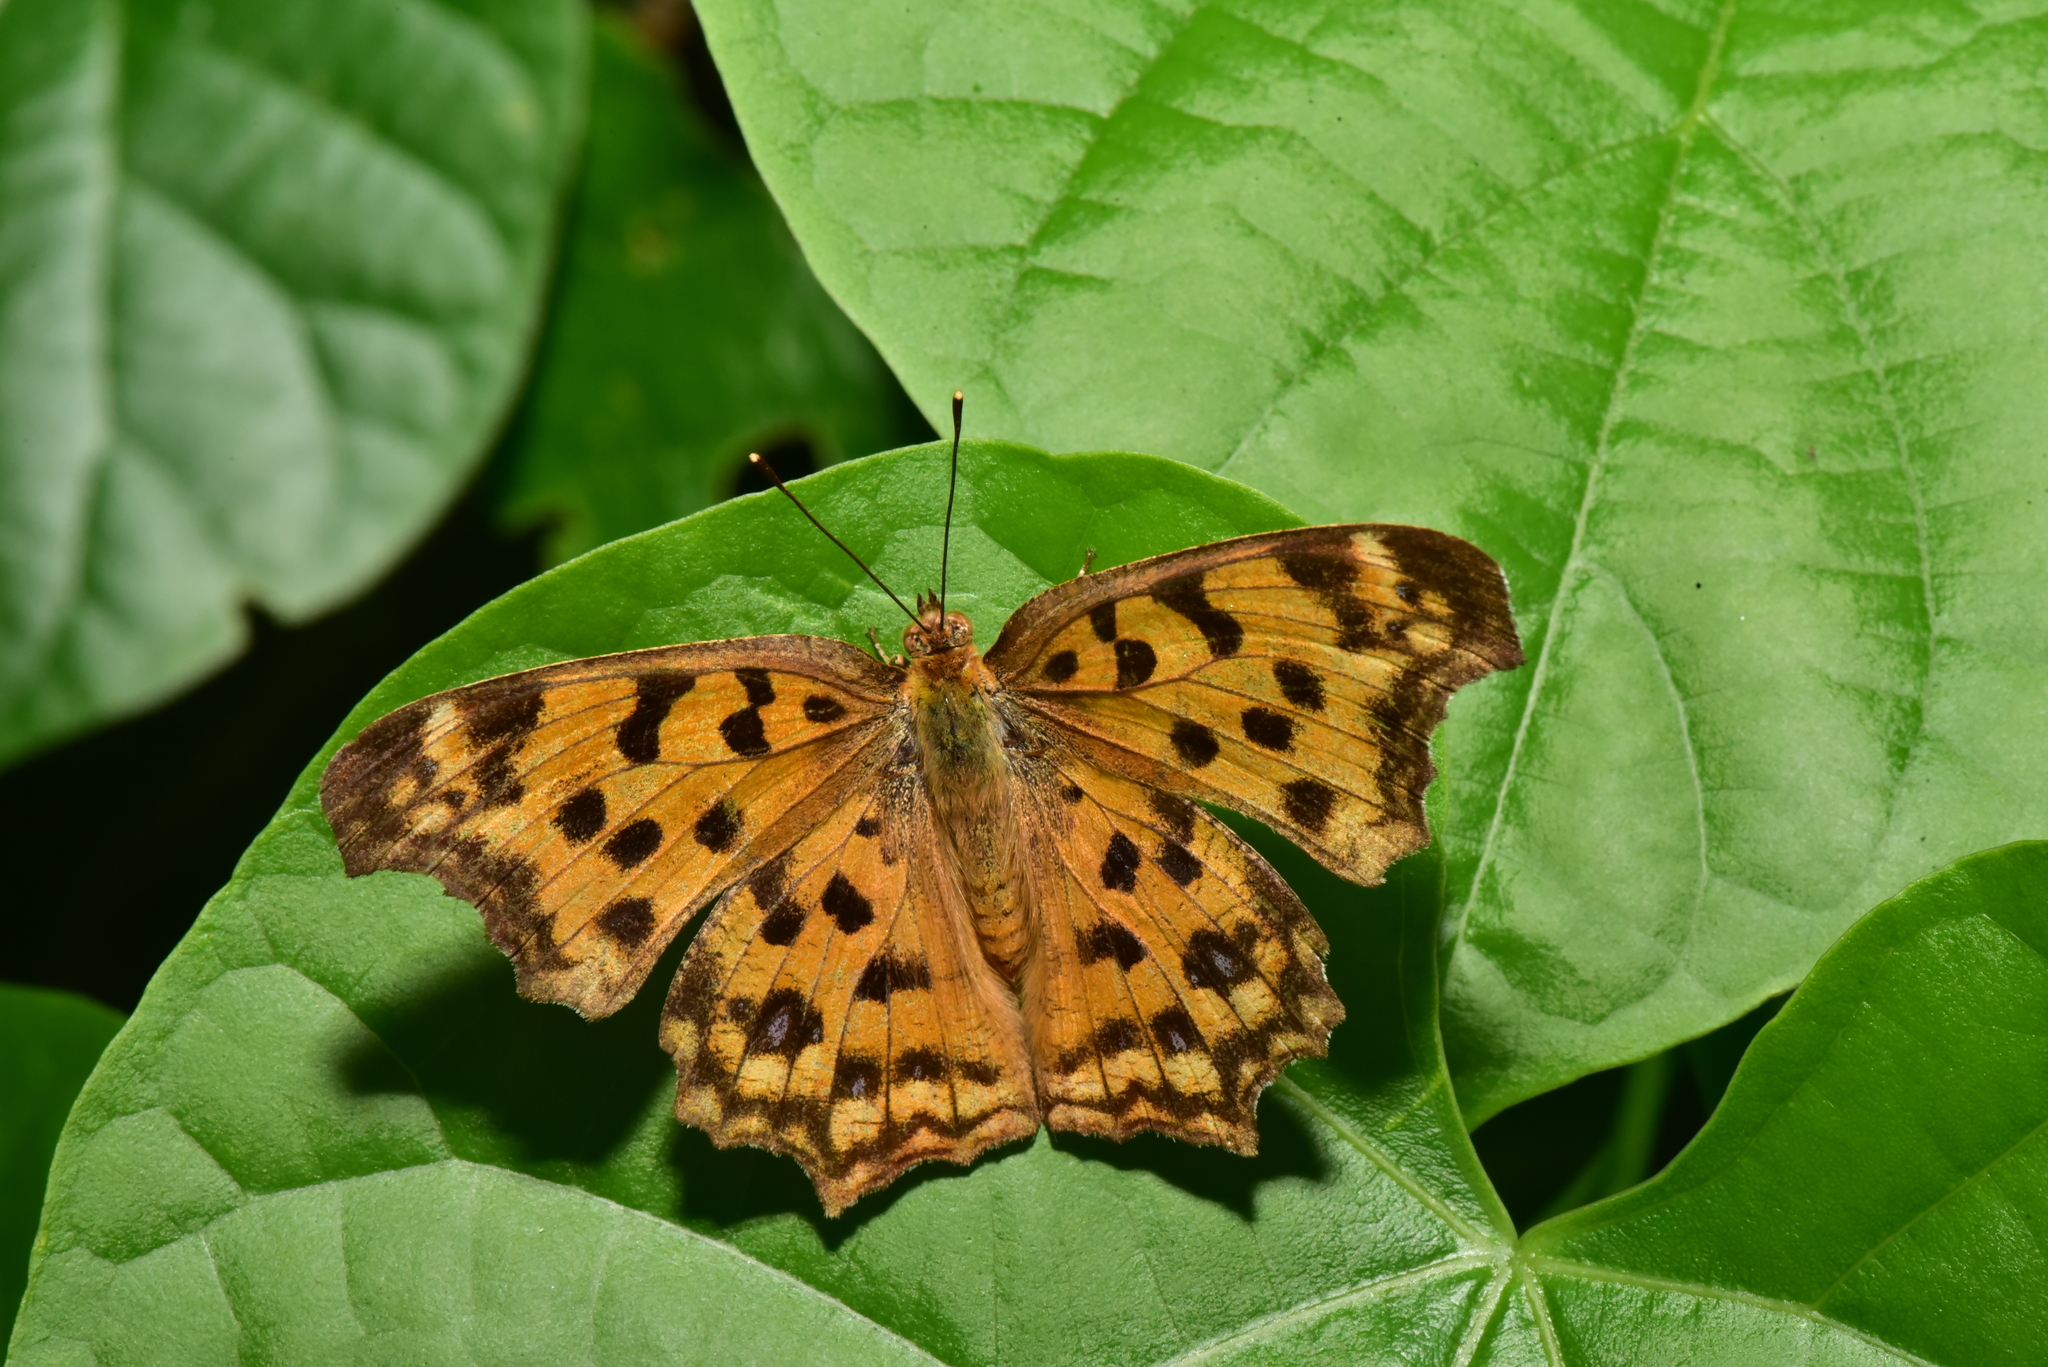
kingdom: Animalia
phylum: Arthropoda
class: Insecta
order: Lepidoptera
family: Nymphalidae
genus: Polygonia
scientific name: Polygonia c-aureum
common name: Asian comma
